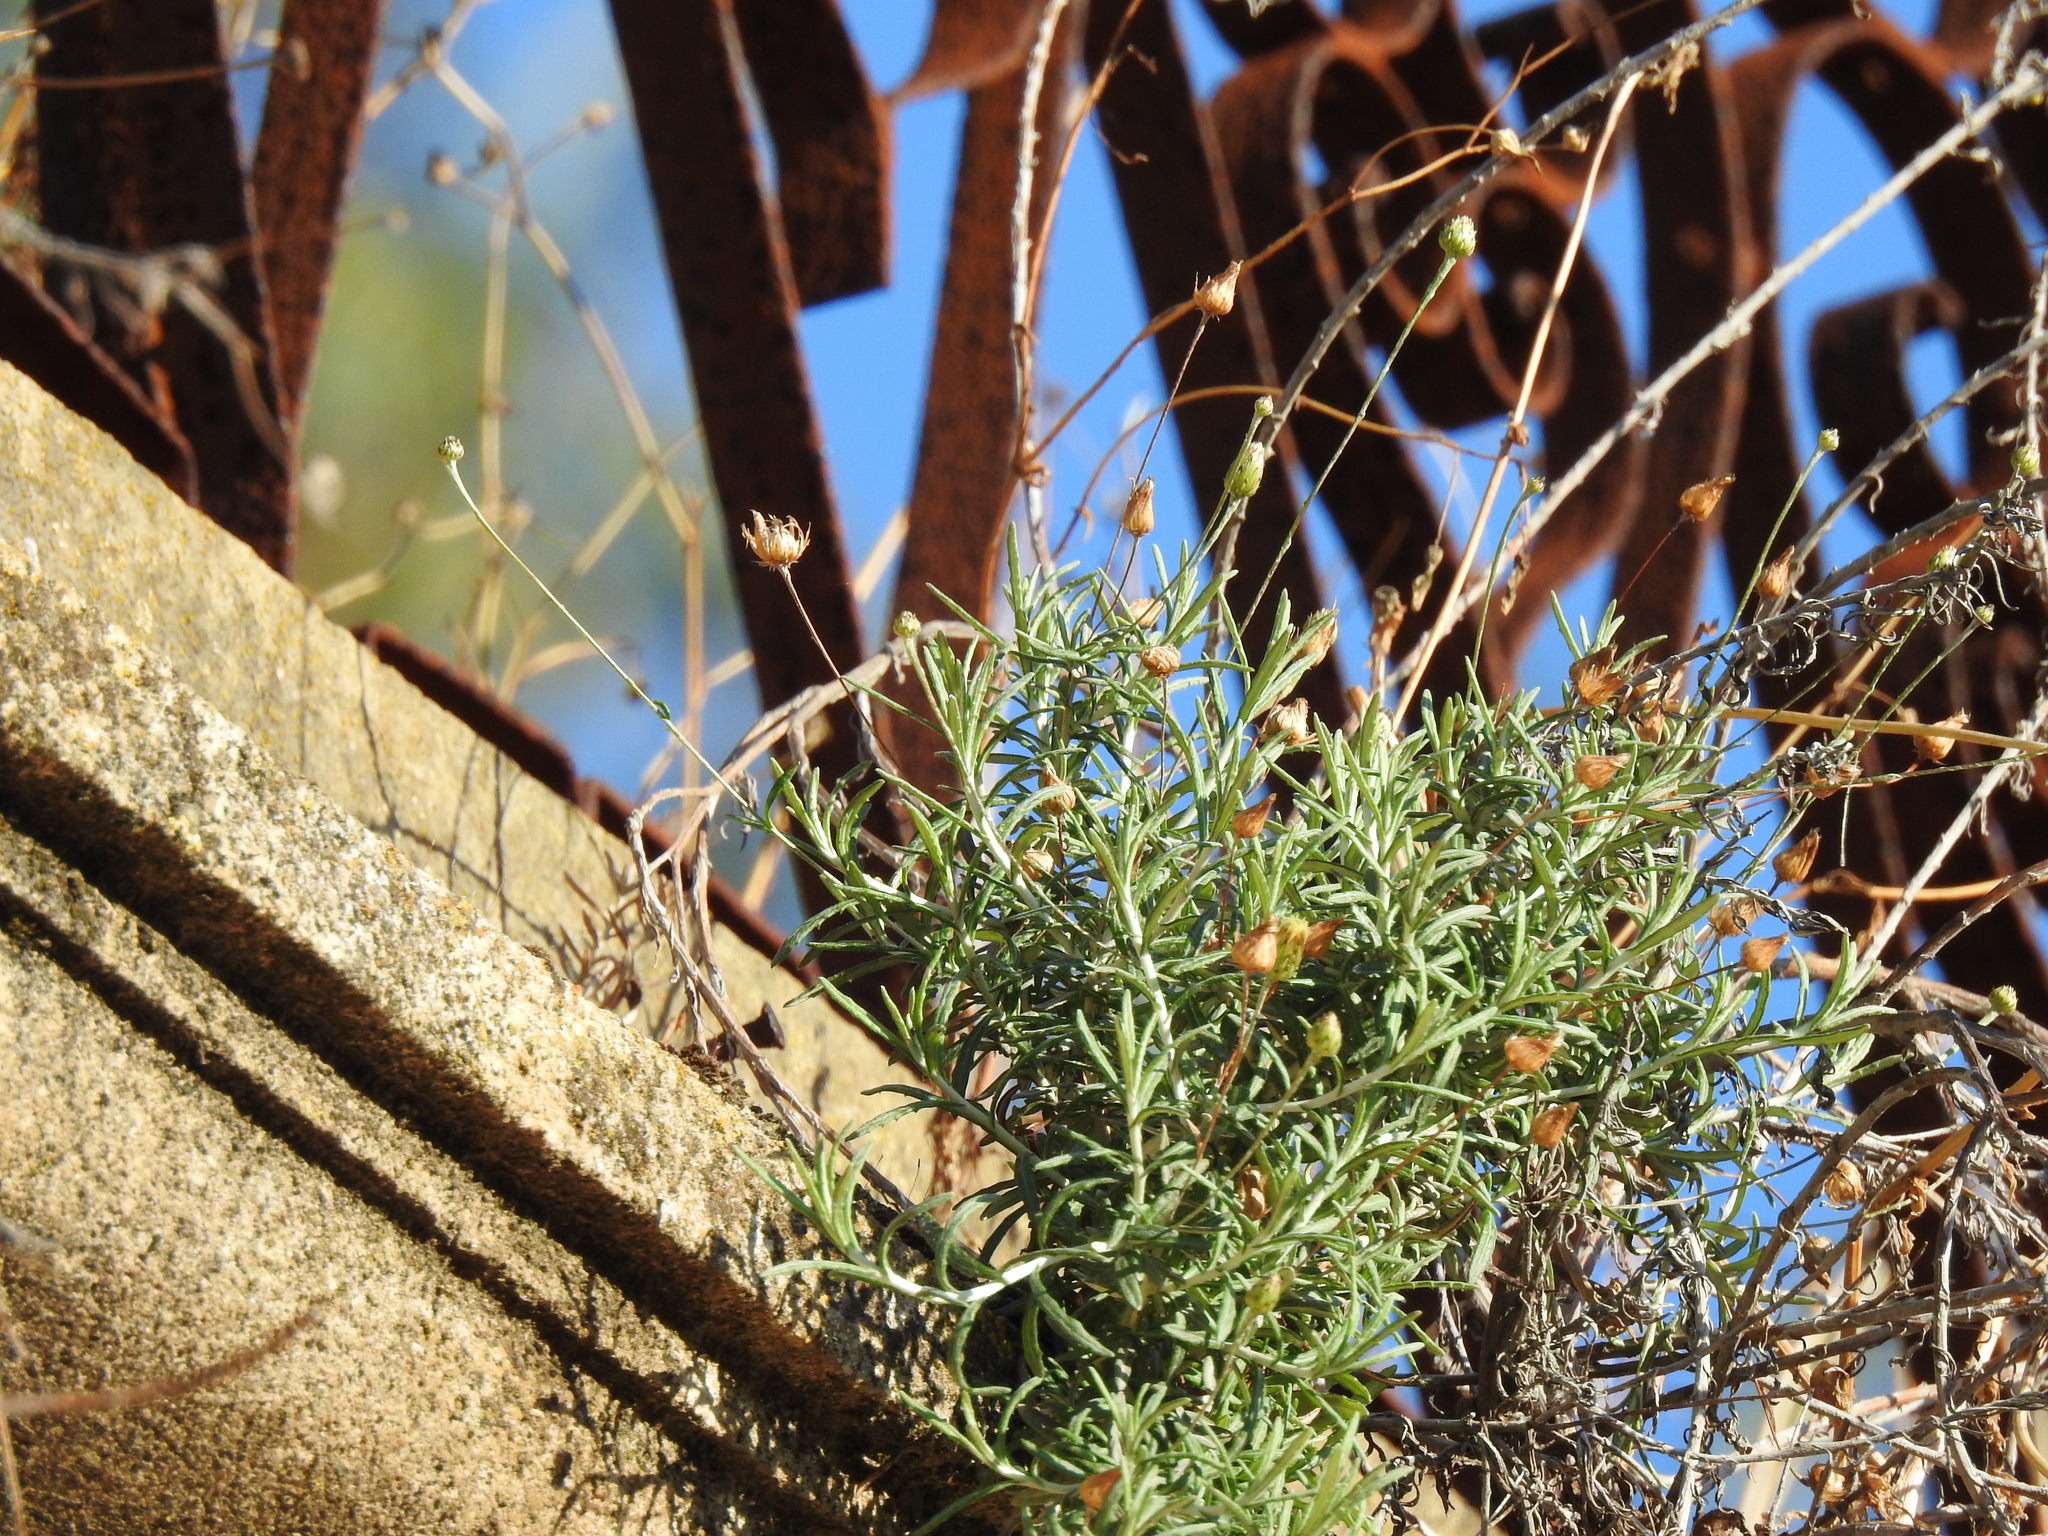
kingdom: Plantae
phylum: Tracheophyta
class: Magnoliopsida
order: Asterales
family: Asteraceae
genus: Phagnalon
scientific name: Phagnalon saxatile
